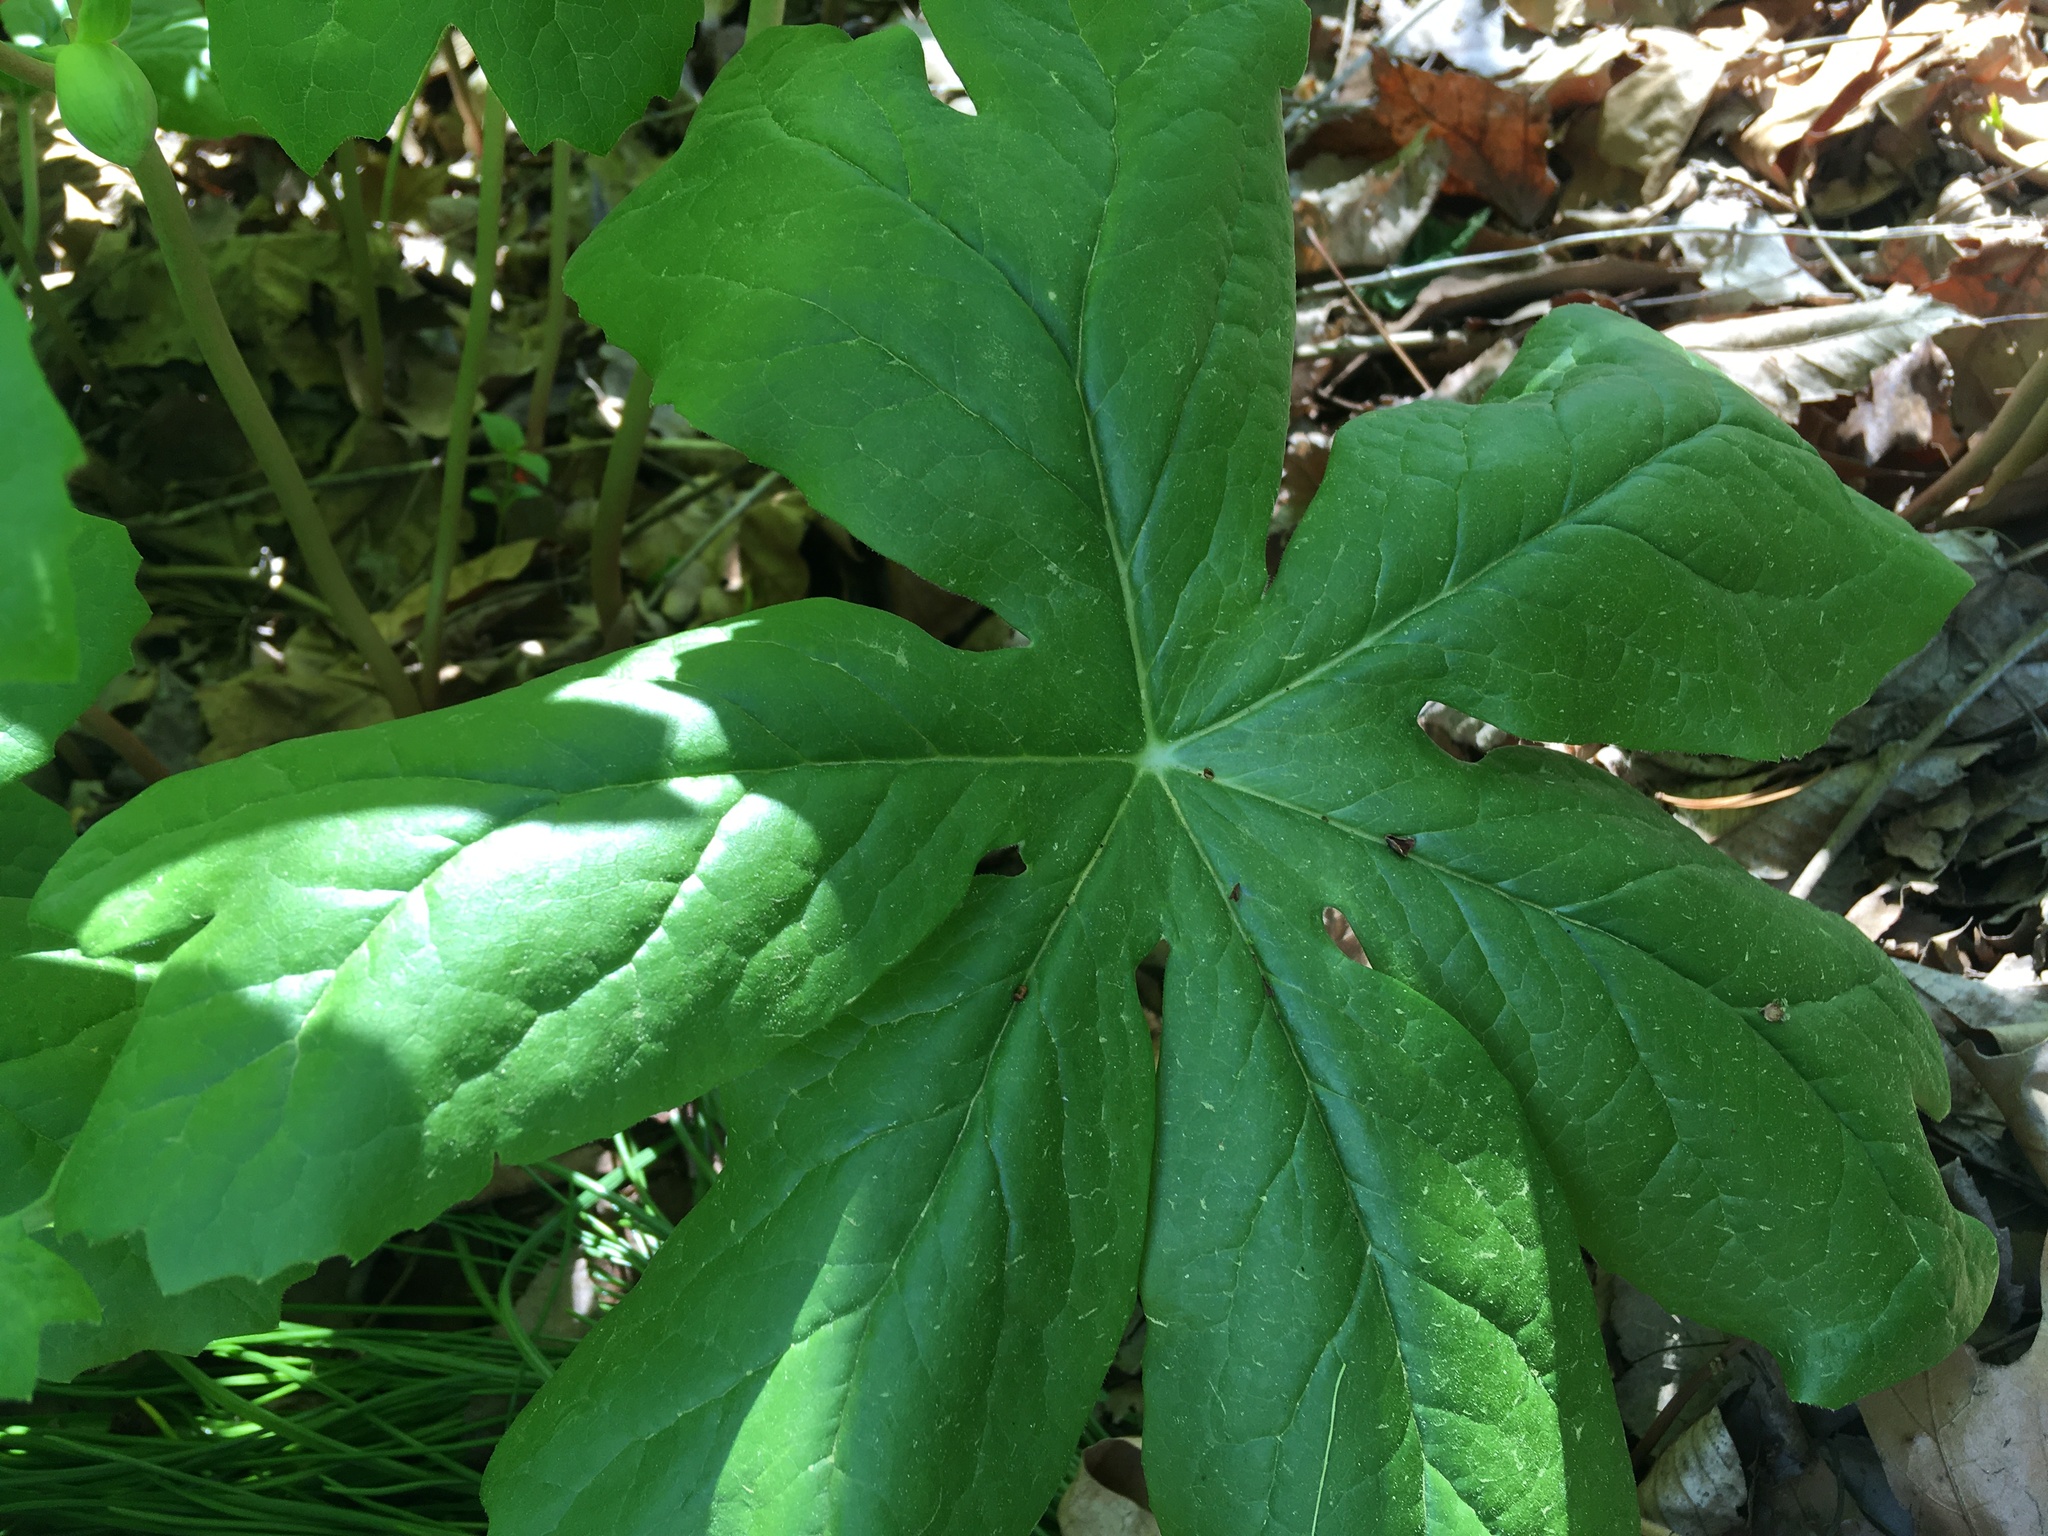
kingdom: Plantae
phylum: Tracheophyta
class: Magnoliopsida
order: Ranunculales
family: Berberidaceae
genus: Podophyllum
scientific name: Podophyllum peltatum
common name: Wild mandrake
